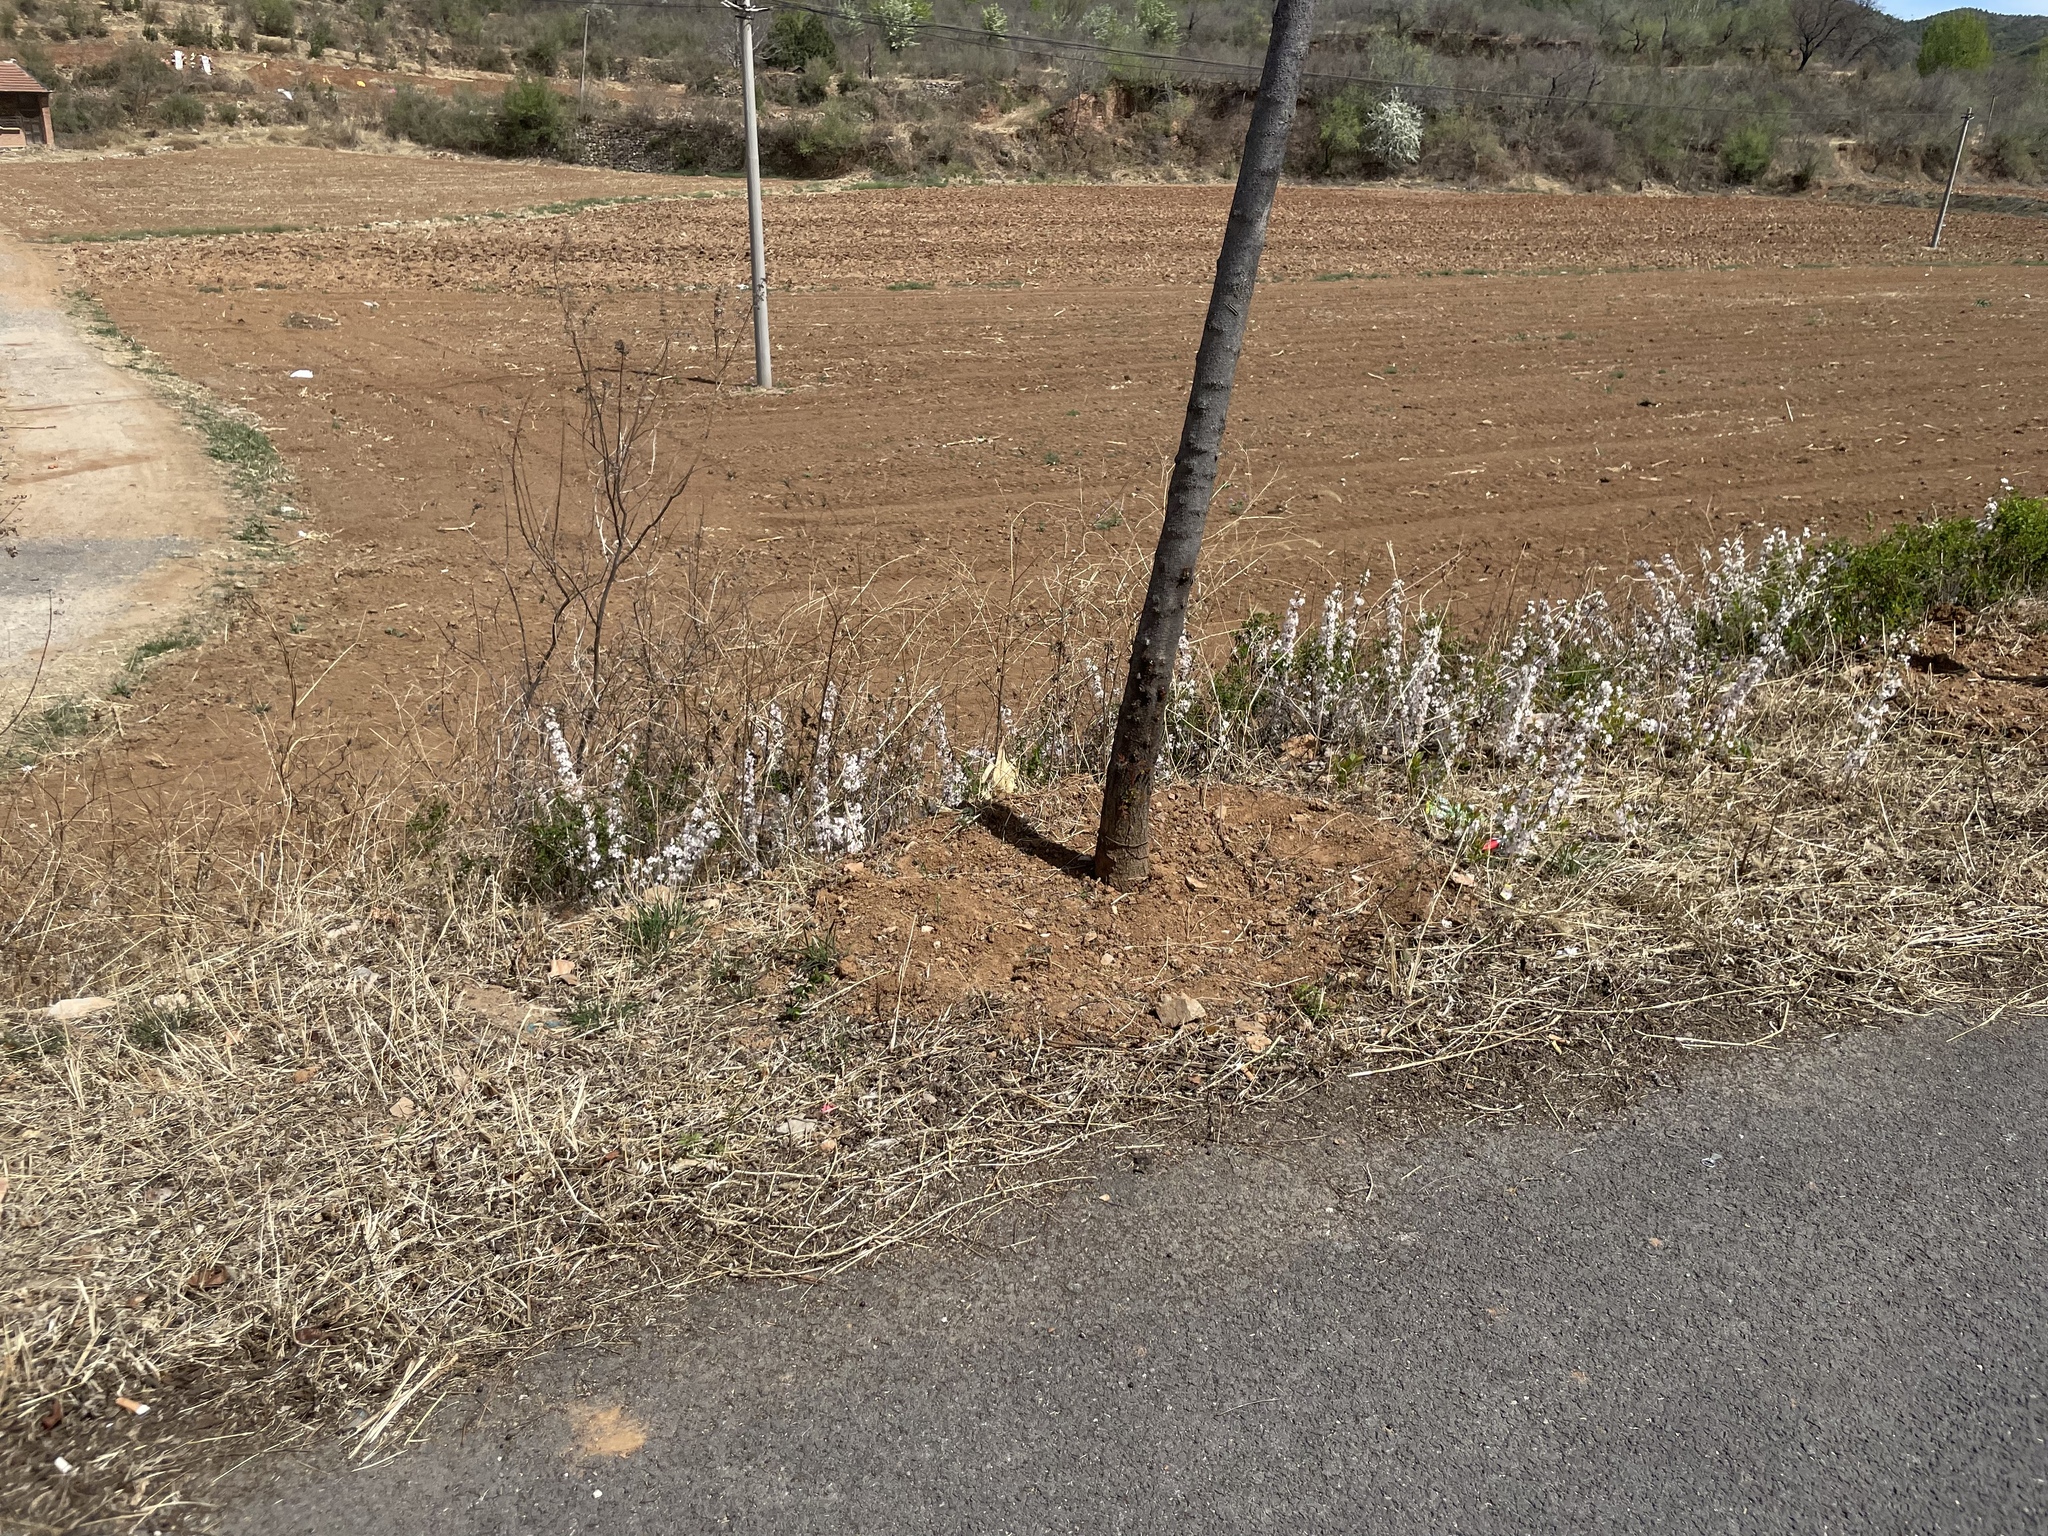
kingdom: Plantae
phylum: Tracheophyta
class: Magnoliopsida
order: Rosales
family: Rosaceae
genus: Prunus
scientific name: Prunus humilis
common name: Humble bush cherry
